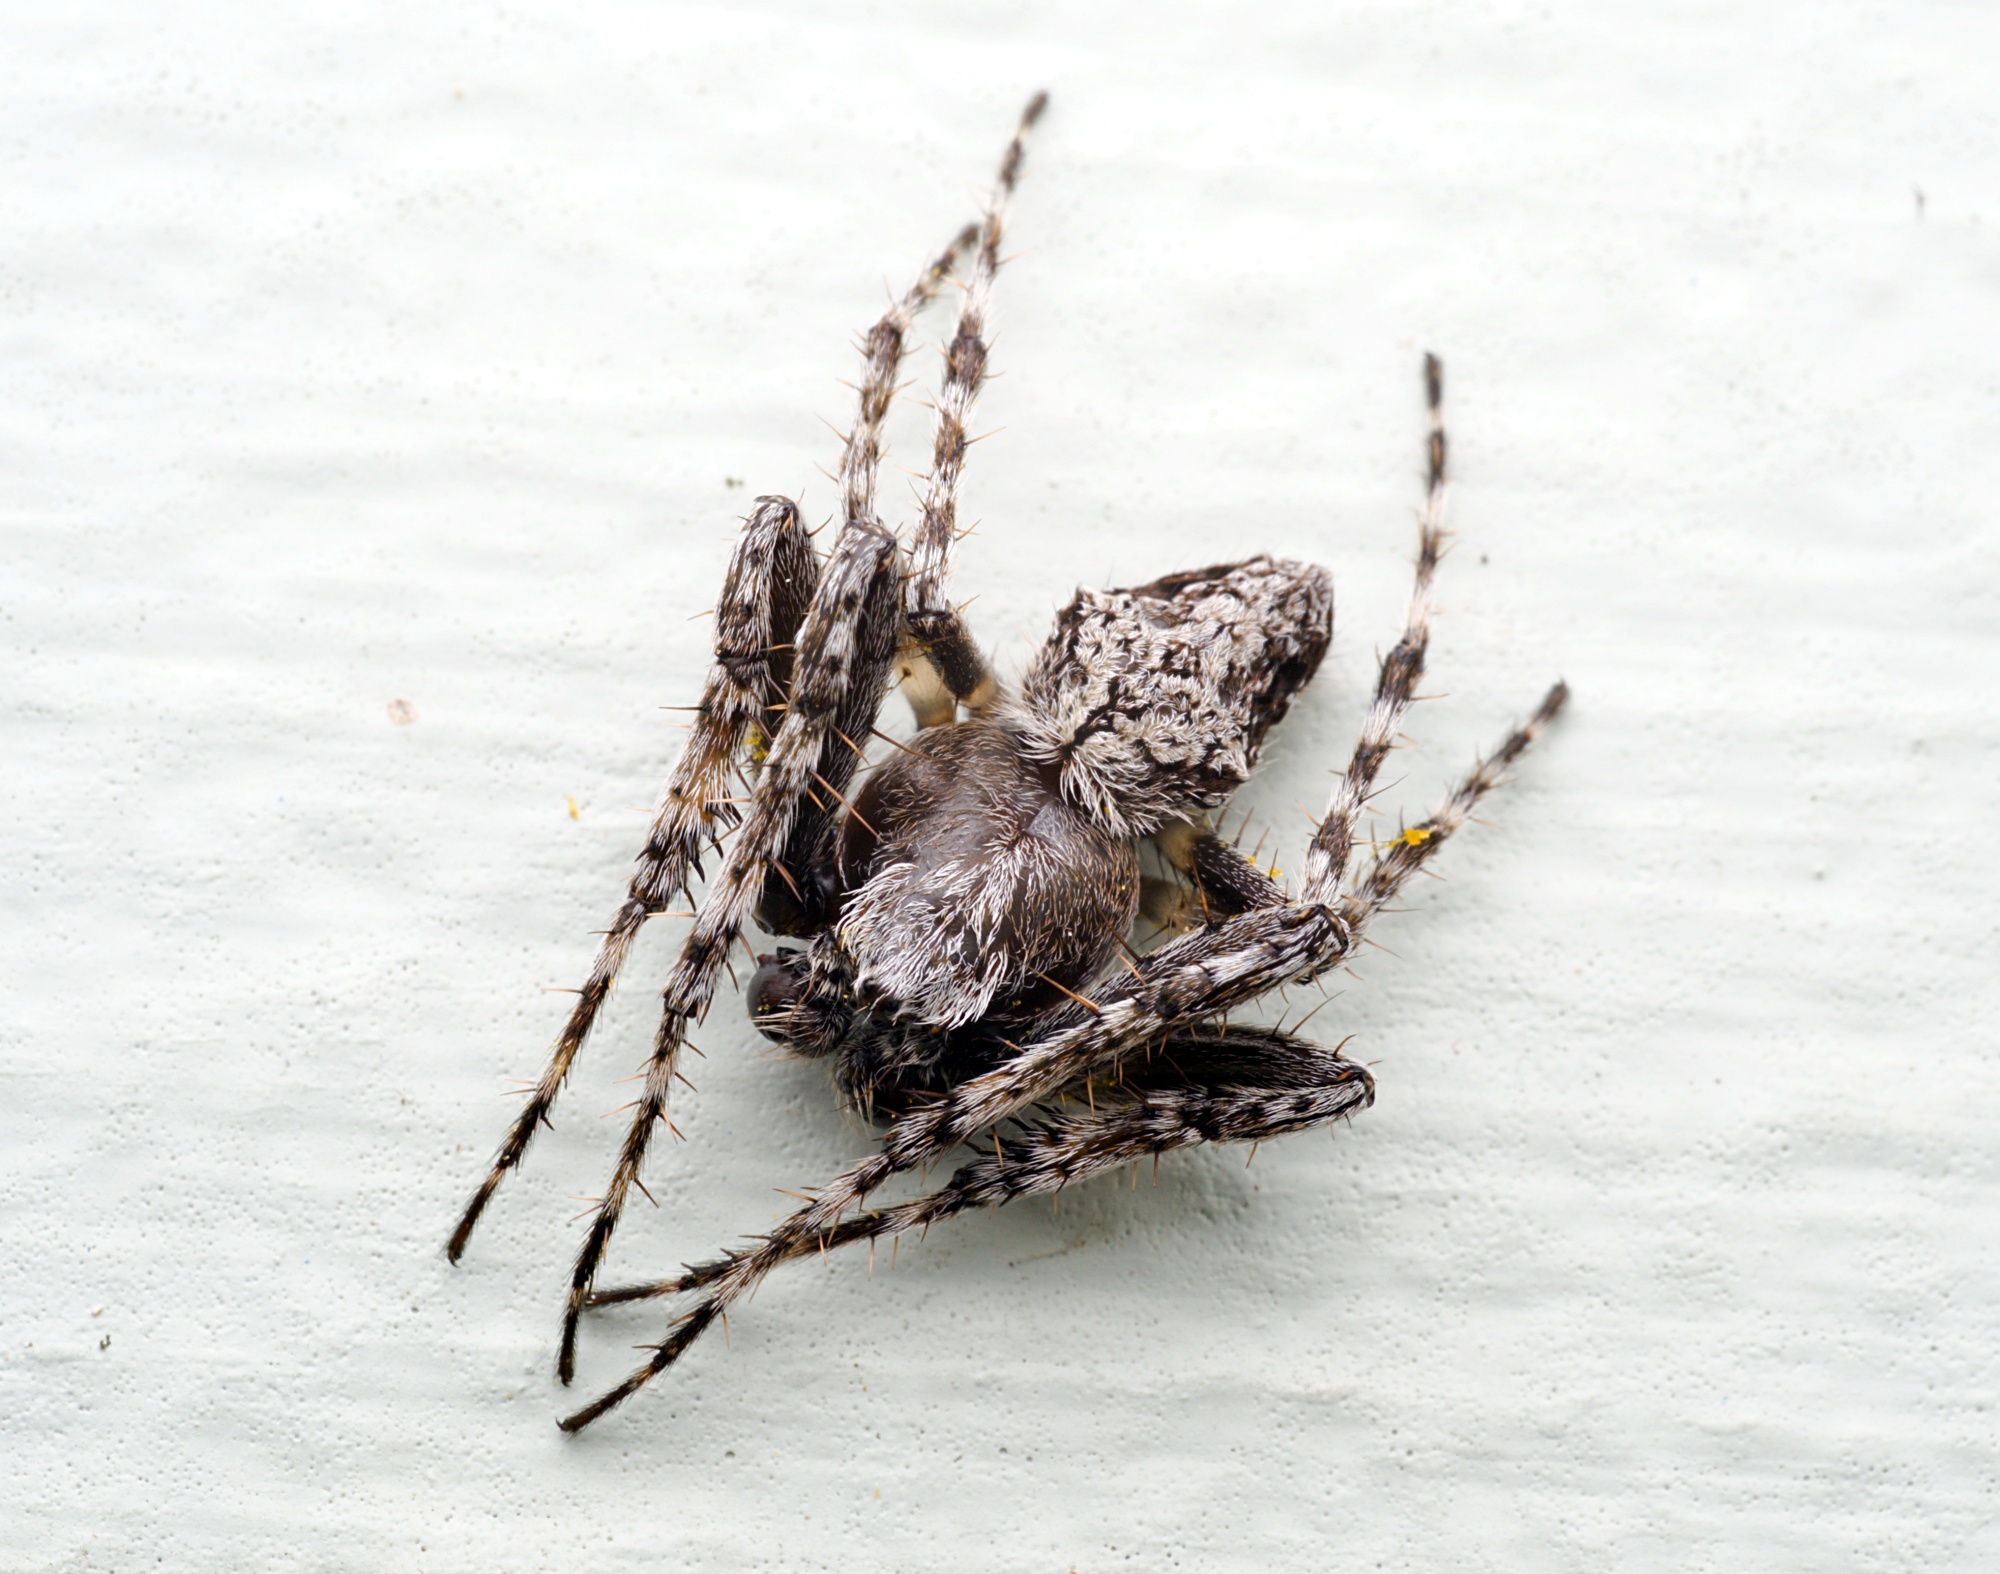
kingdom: Animalia
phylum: Arthropoda
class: Arachnida
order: Araneae
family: Araneidae
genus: Eriophora
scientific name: Eriophora pustulosa
